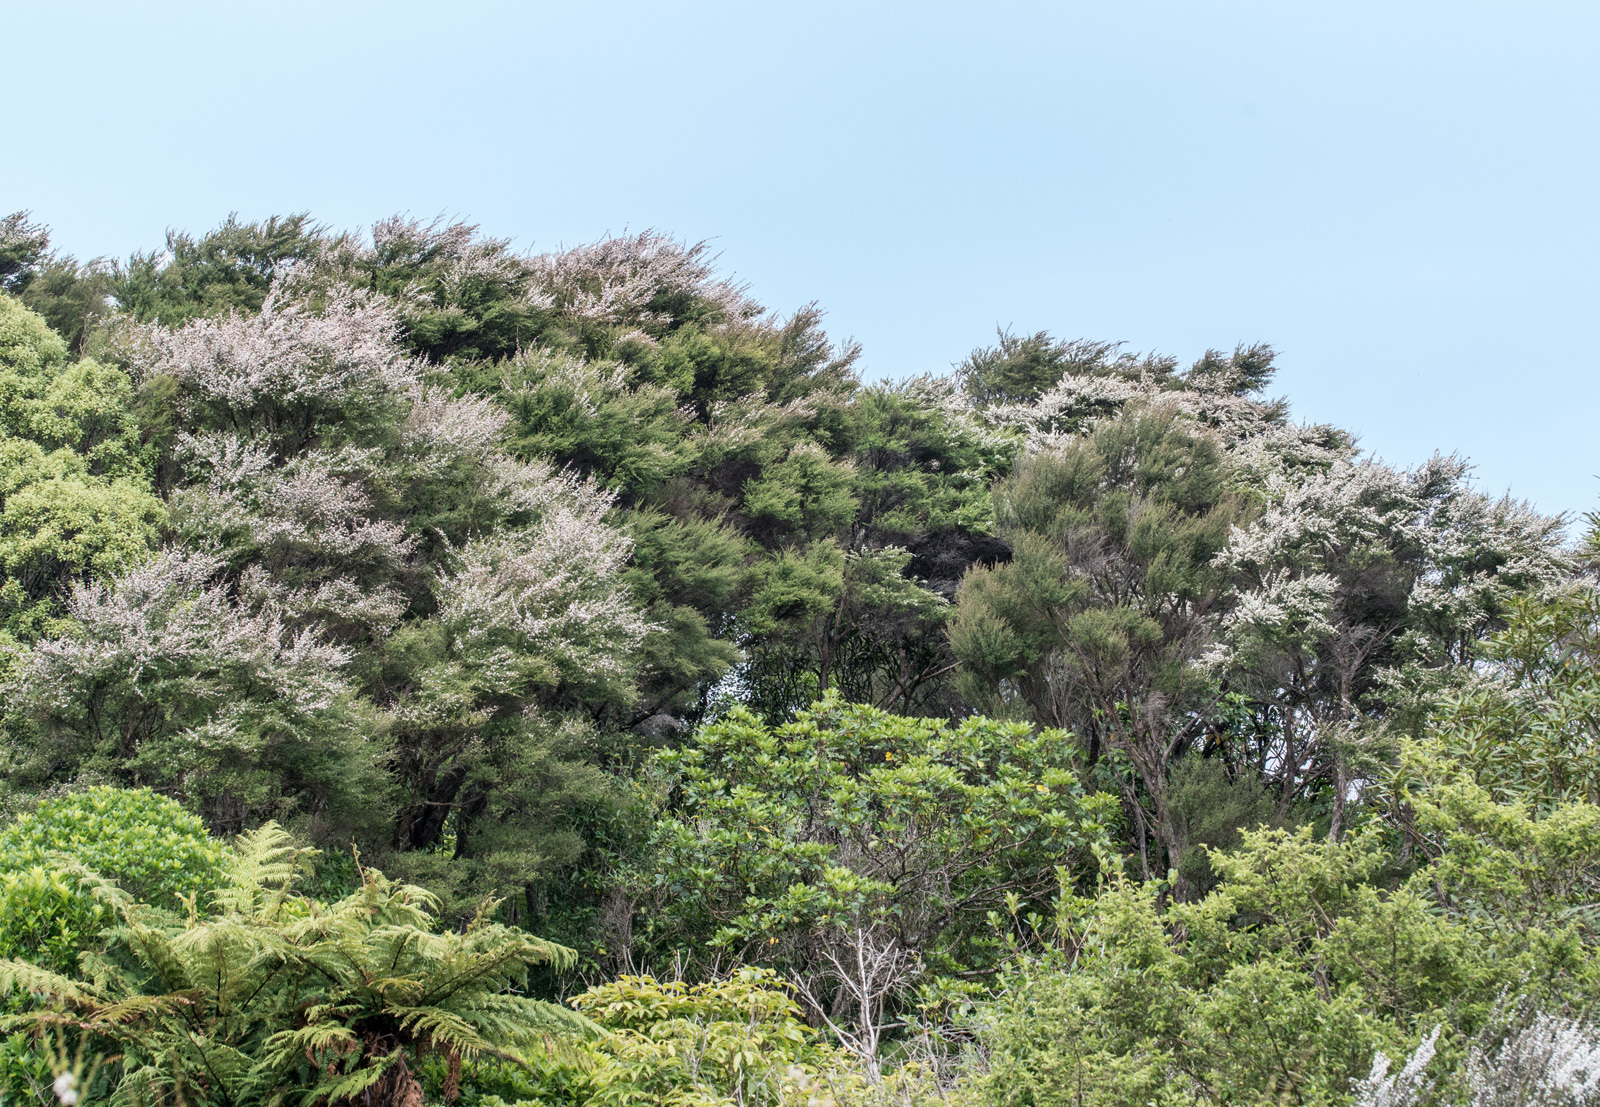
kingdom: Plantae
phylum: Tracheophyta
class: Magnoliopsida
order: Myrtales
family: Myrtaceae
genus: Kunzea
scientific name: Kunzea robusta
